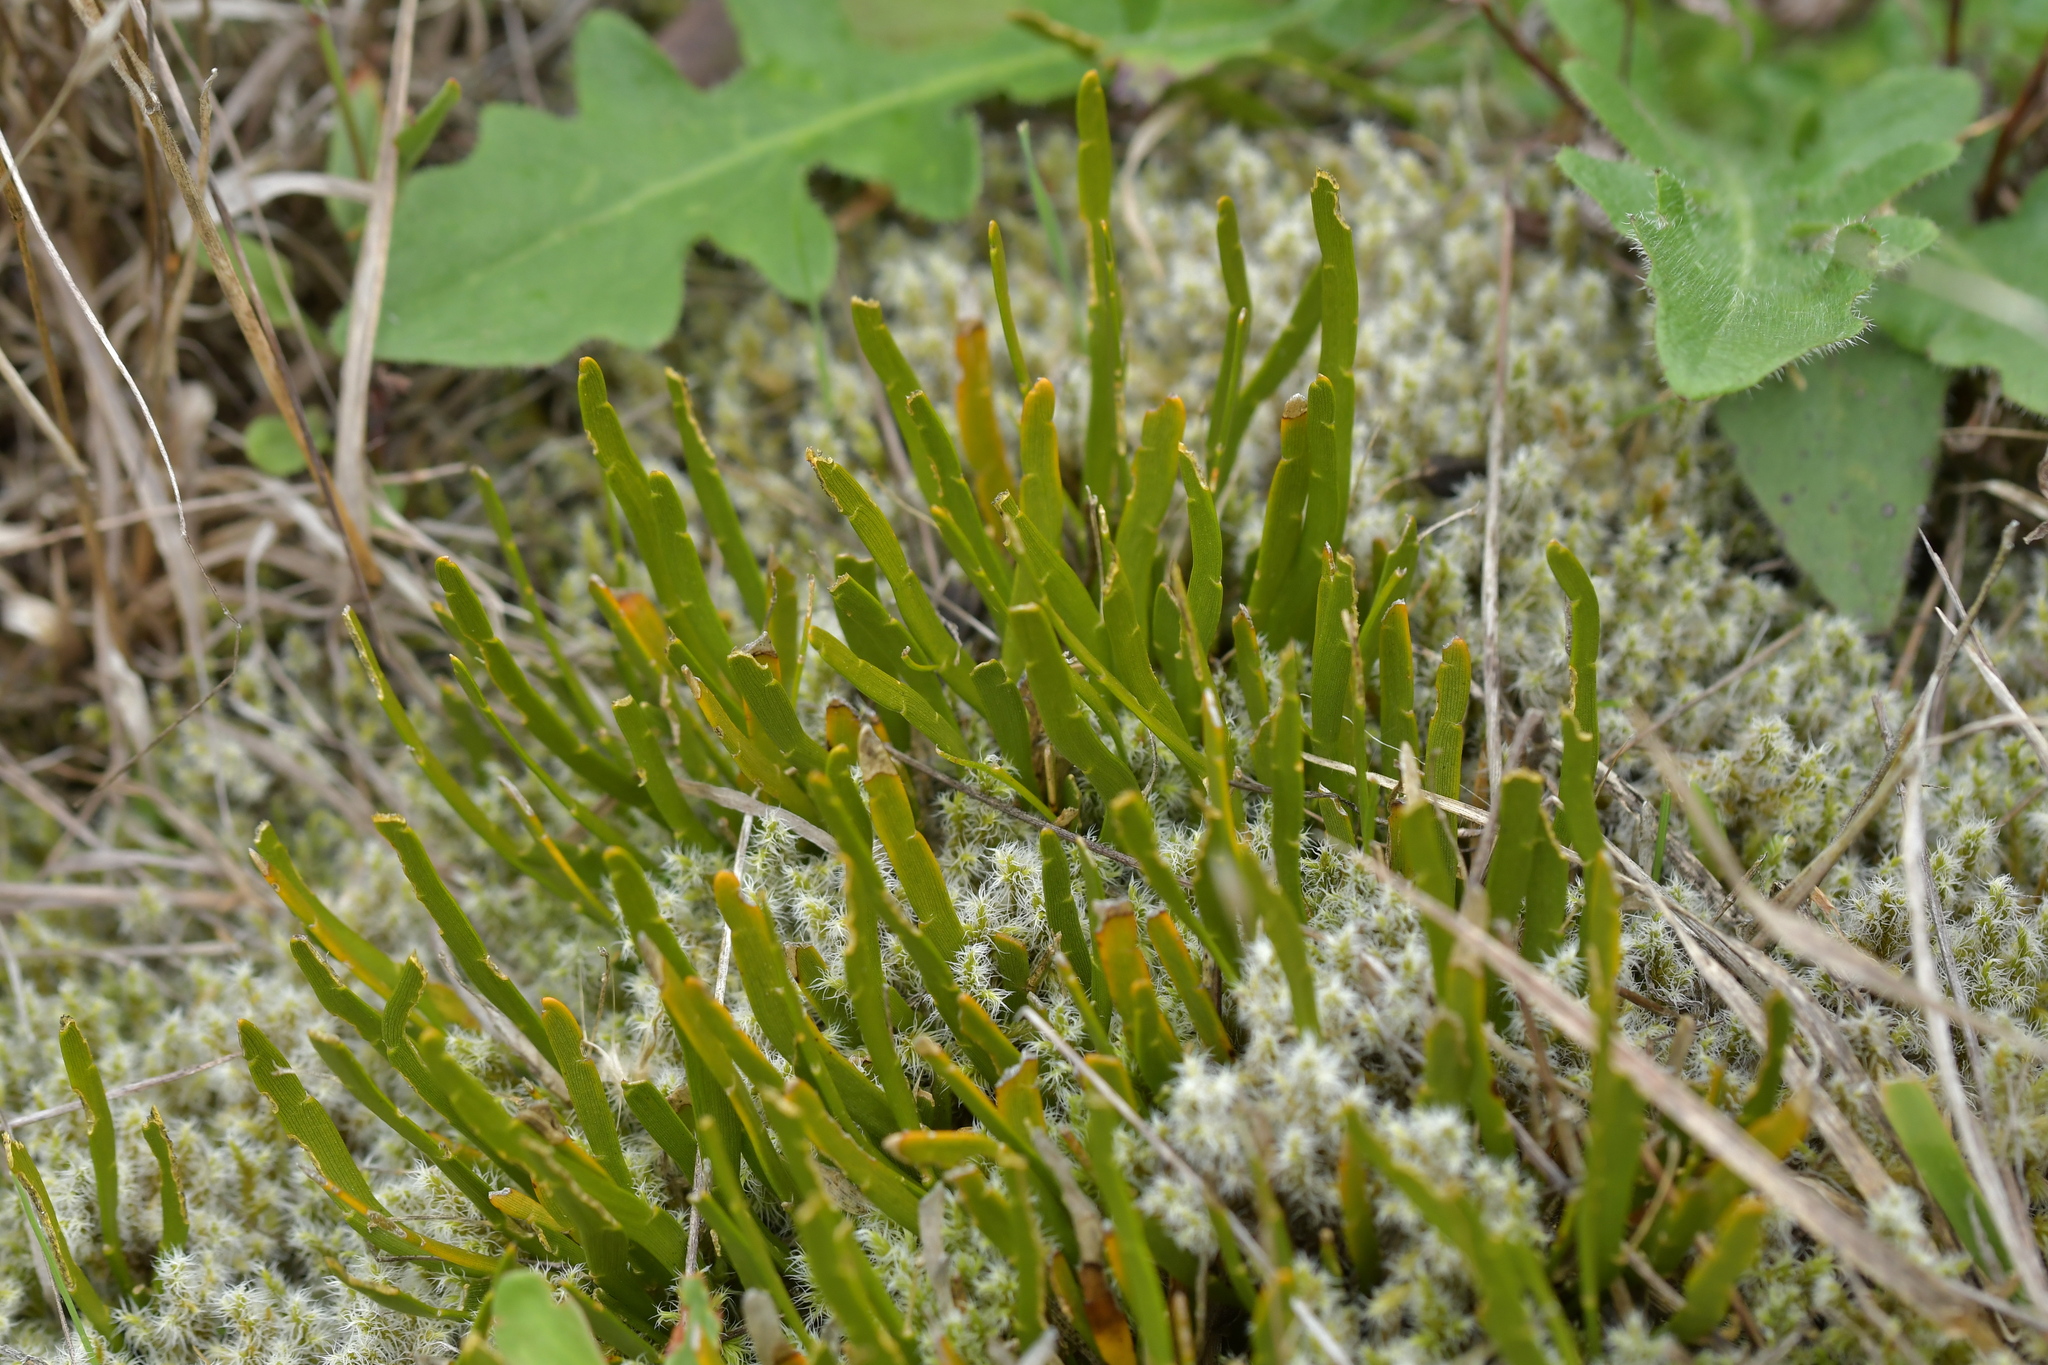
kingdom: Plantae
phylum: Tracheophyta
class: Magnoliopsida
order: Fabales
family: Fabaceae
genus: Carmichaelia
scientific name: Carmichaelia corrugata
